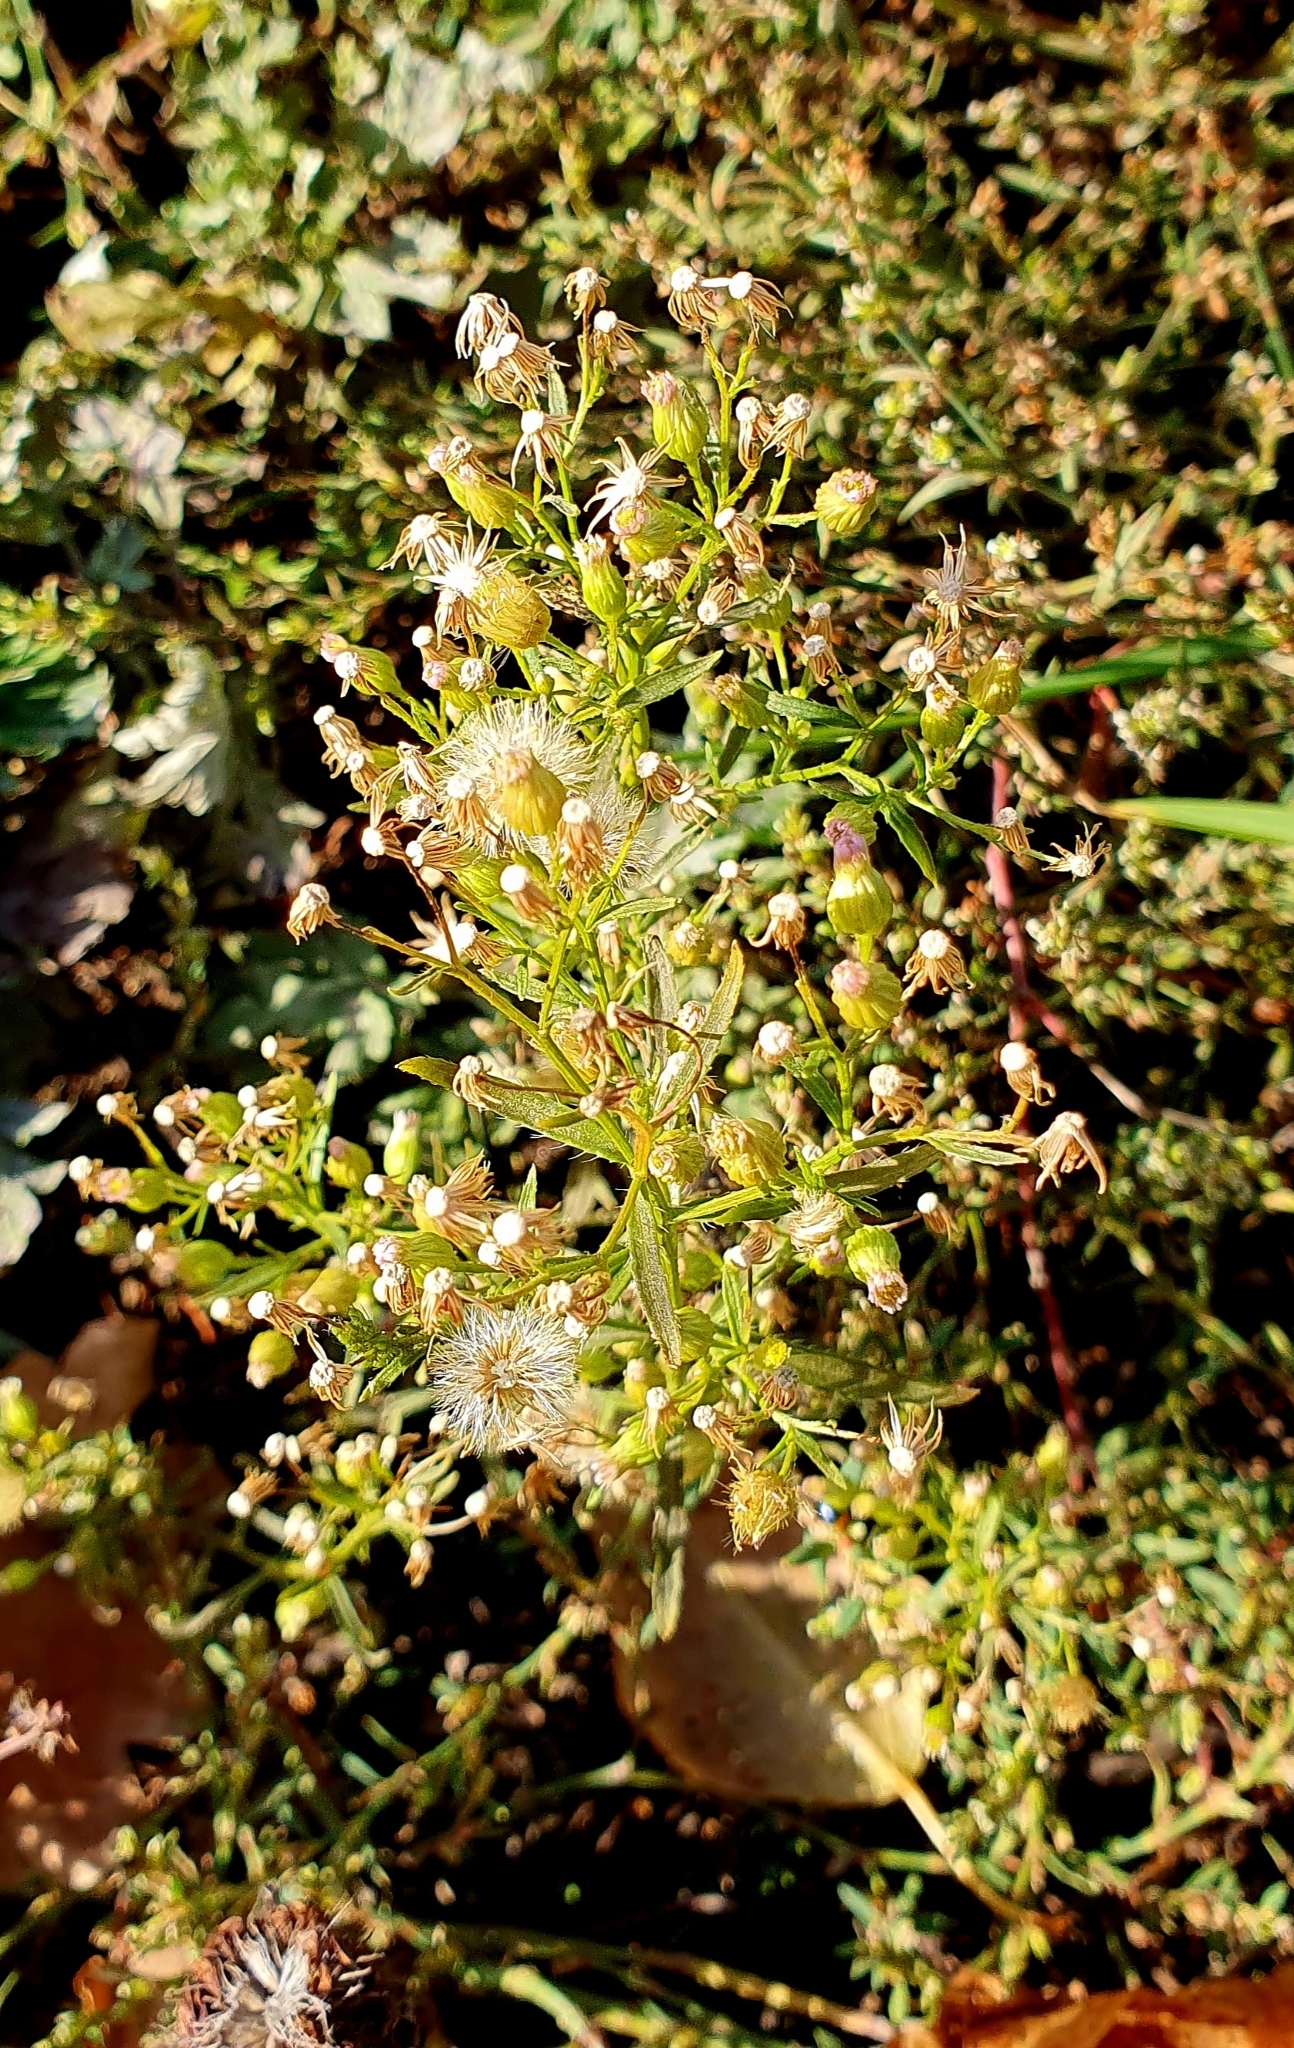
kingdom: Plantae
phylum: Tracheophyta
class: Magnoliopsida
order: Asterales
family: Asteraceae
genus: Erigeron
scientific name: Erigeron canadensis
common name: Canadian fleabane
